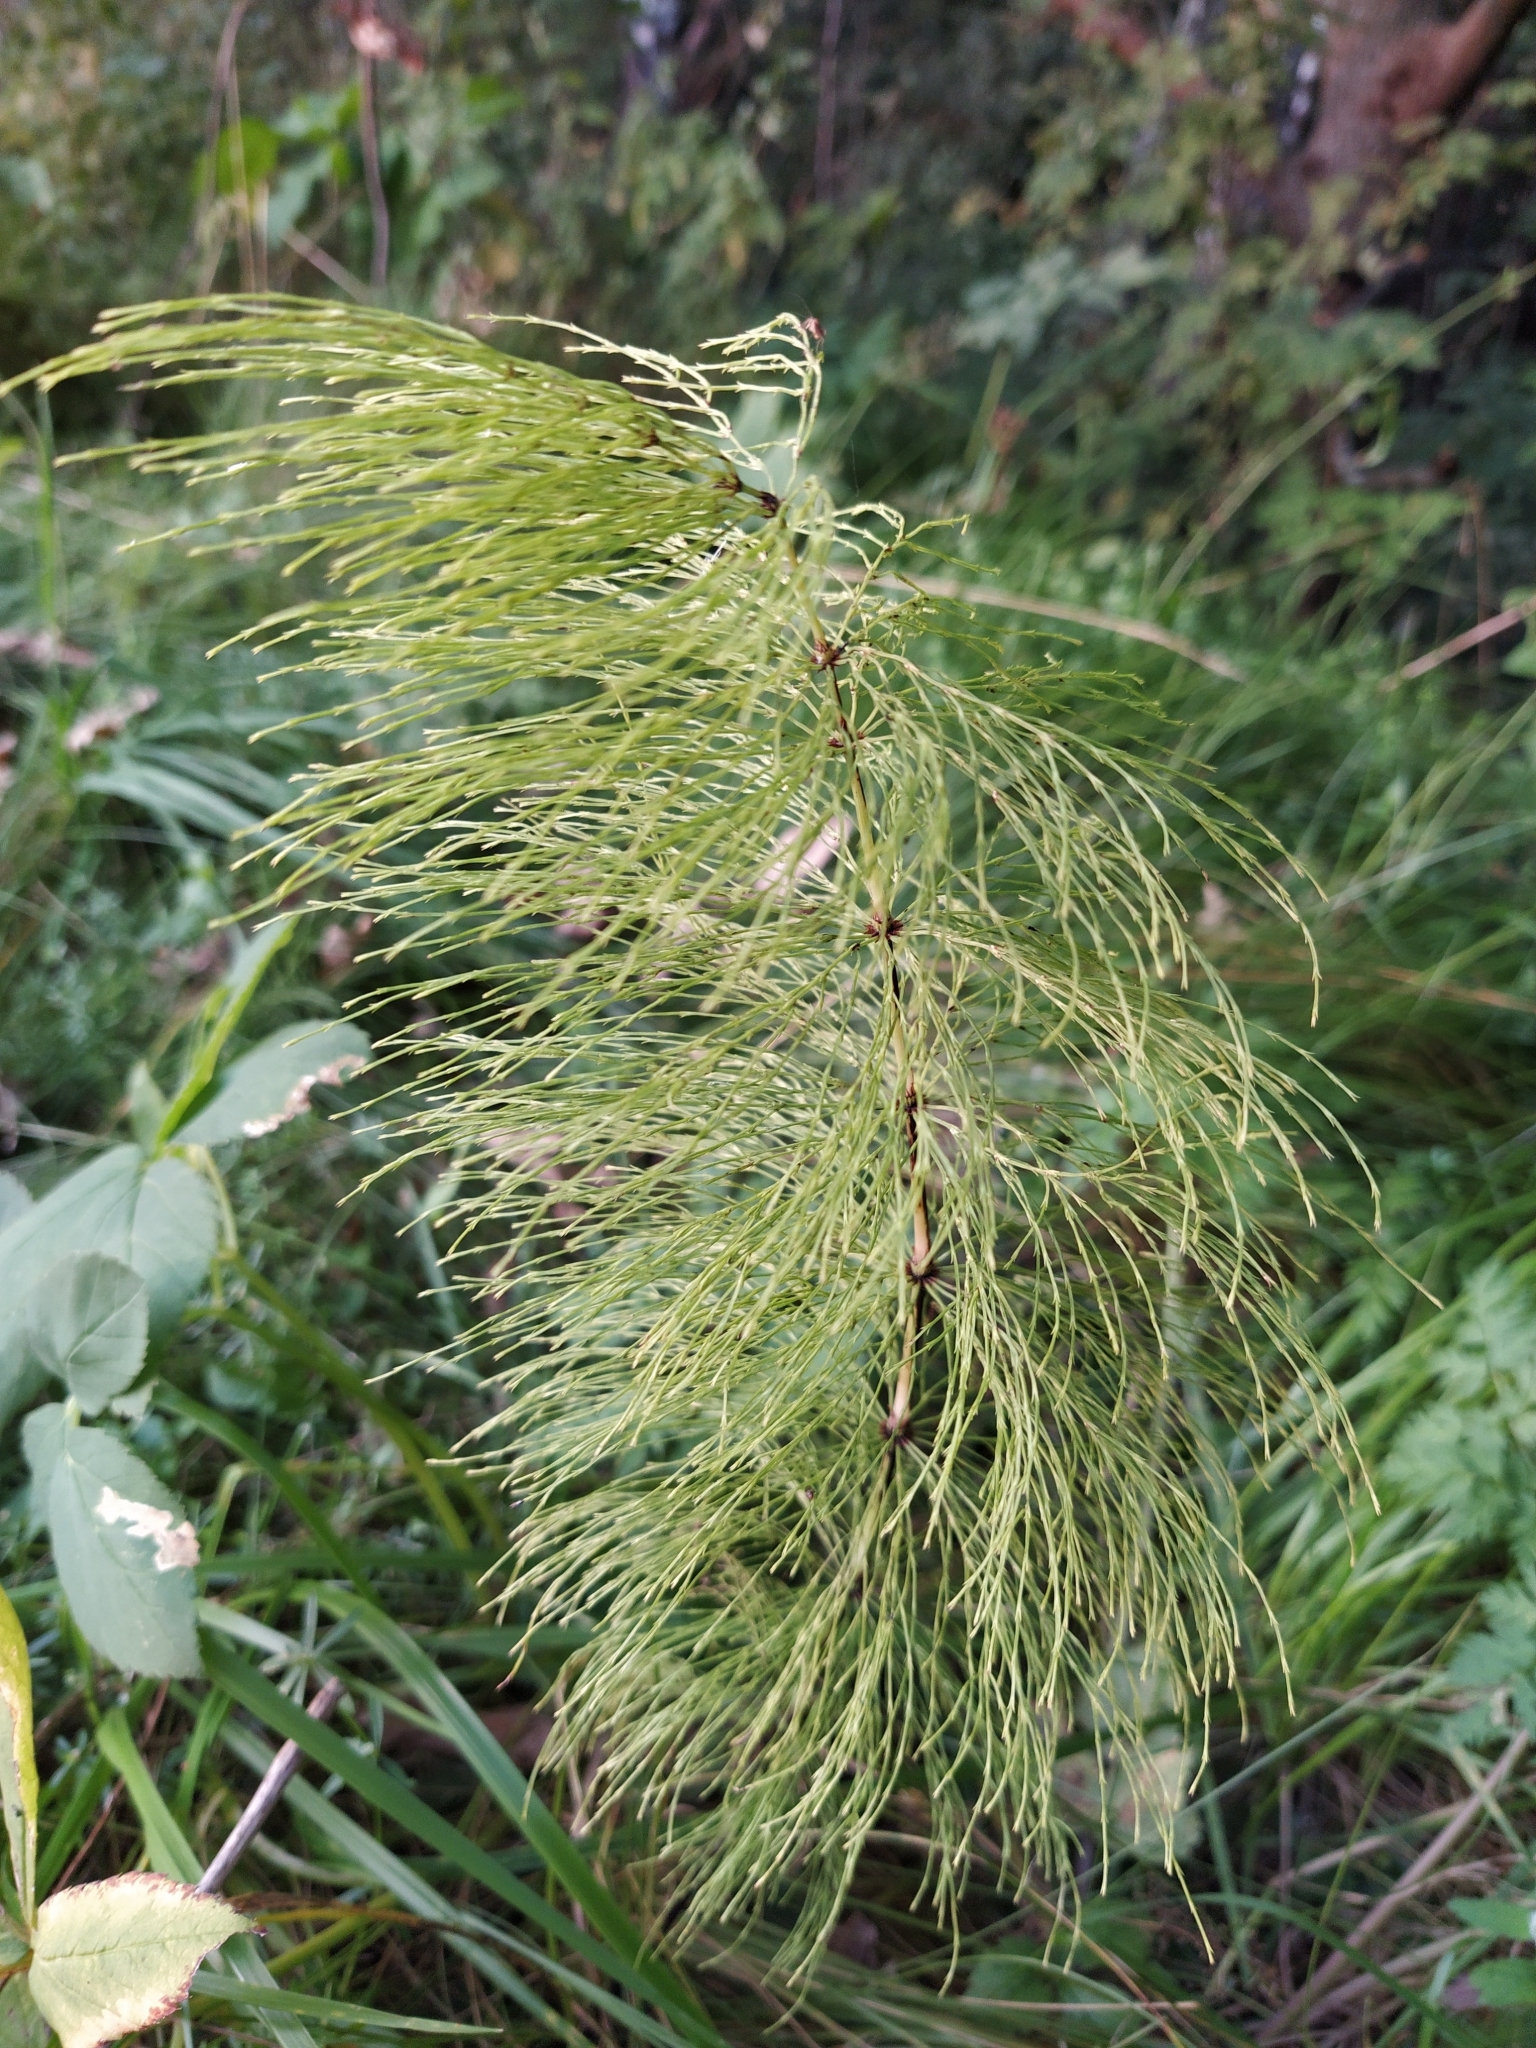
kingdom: Plantae
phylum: Tracheophyta
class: Polypodiopsida
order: Equisetales
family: Equisetaceae
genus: Equisetum
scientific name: Equisetum sylvaticum
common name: Wood horsetail
